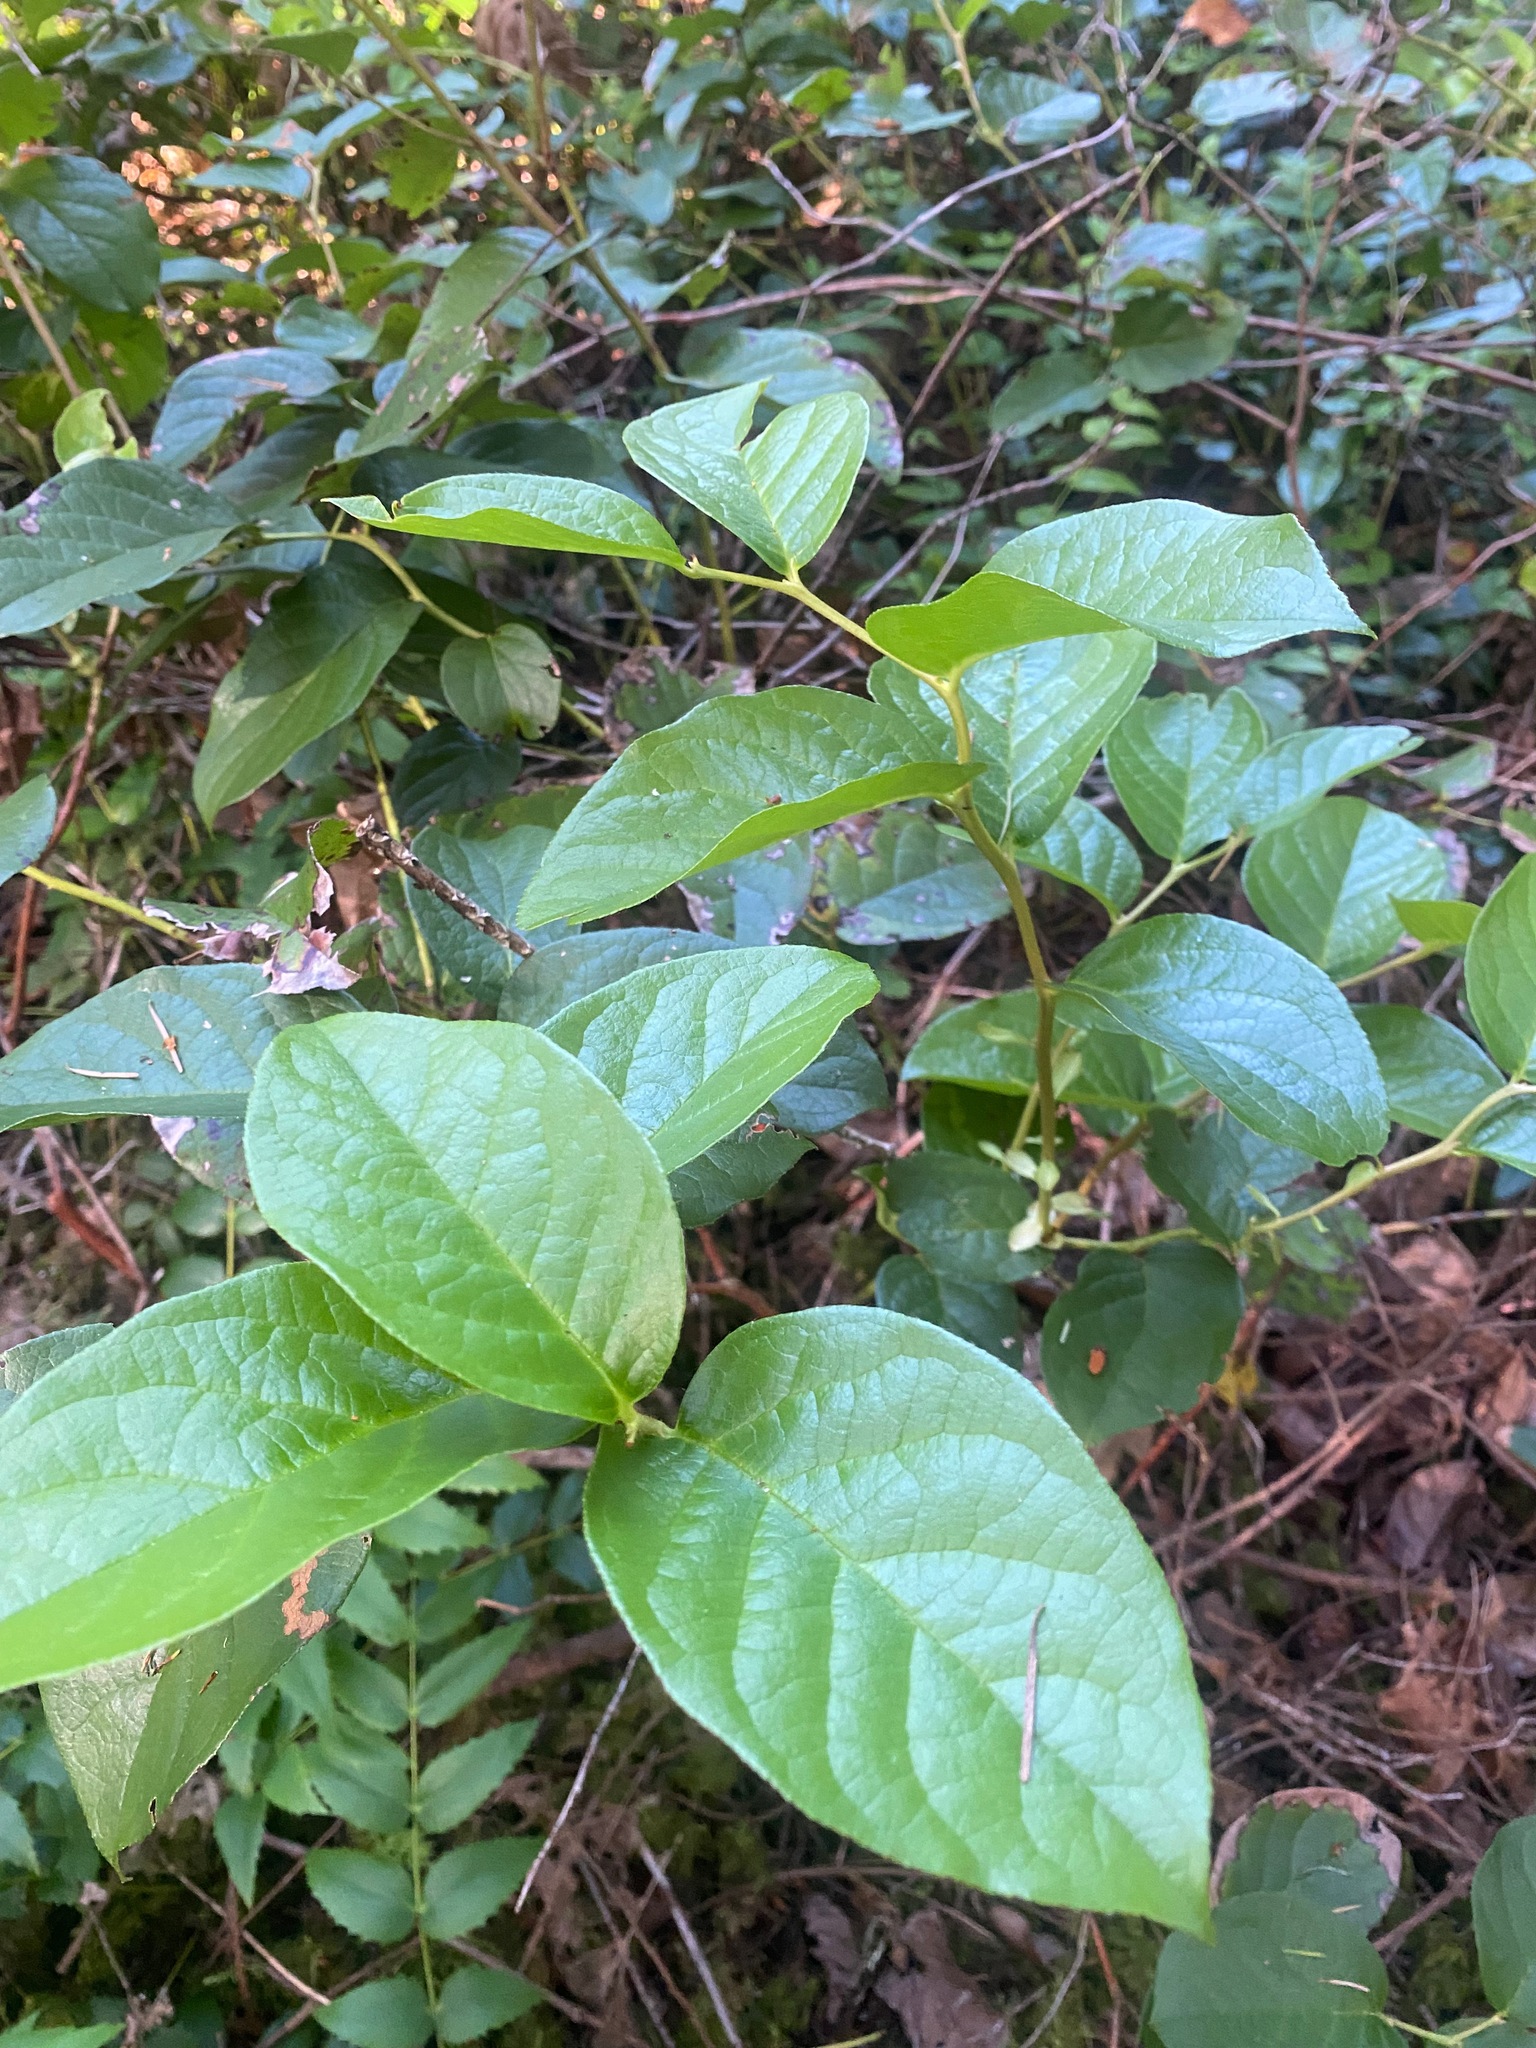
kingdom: Plantae
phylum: Tracheophyta
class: Magnoliopsida
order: Ericales
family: Ericaceae
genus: Gaultheria
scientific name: Gaultheria shallon
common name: Shallon
